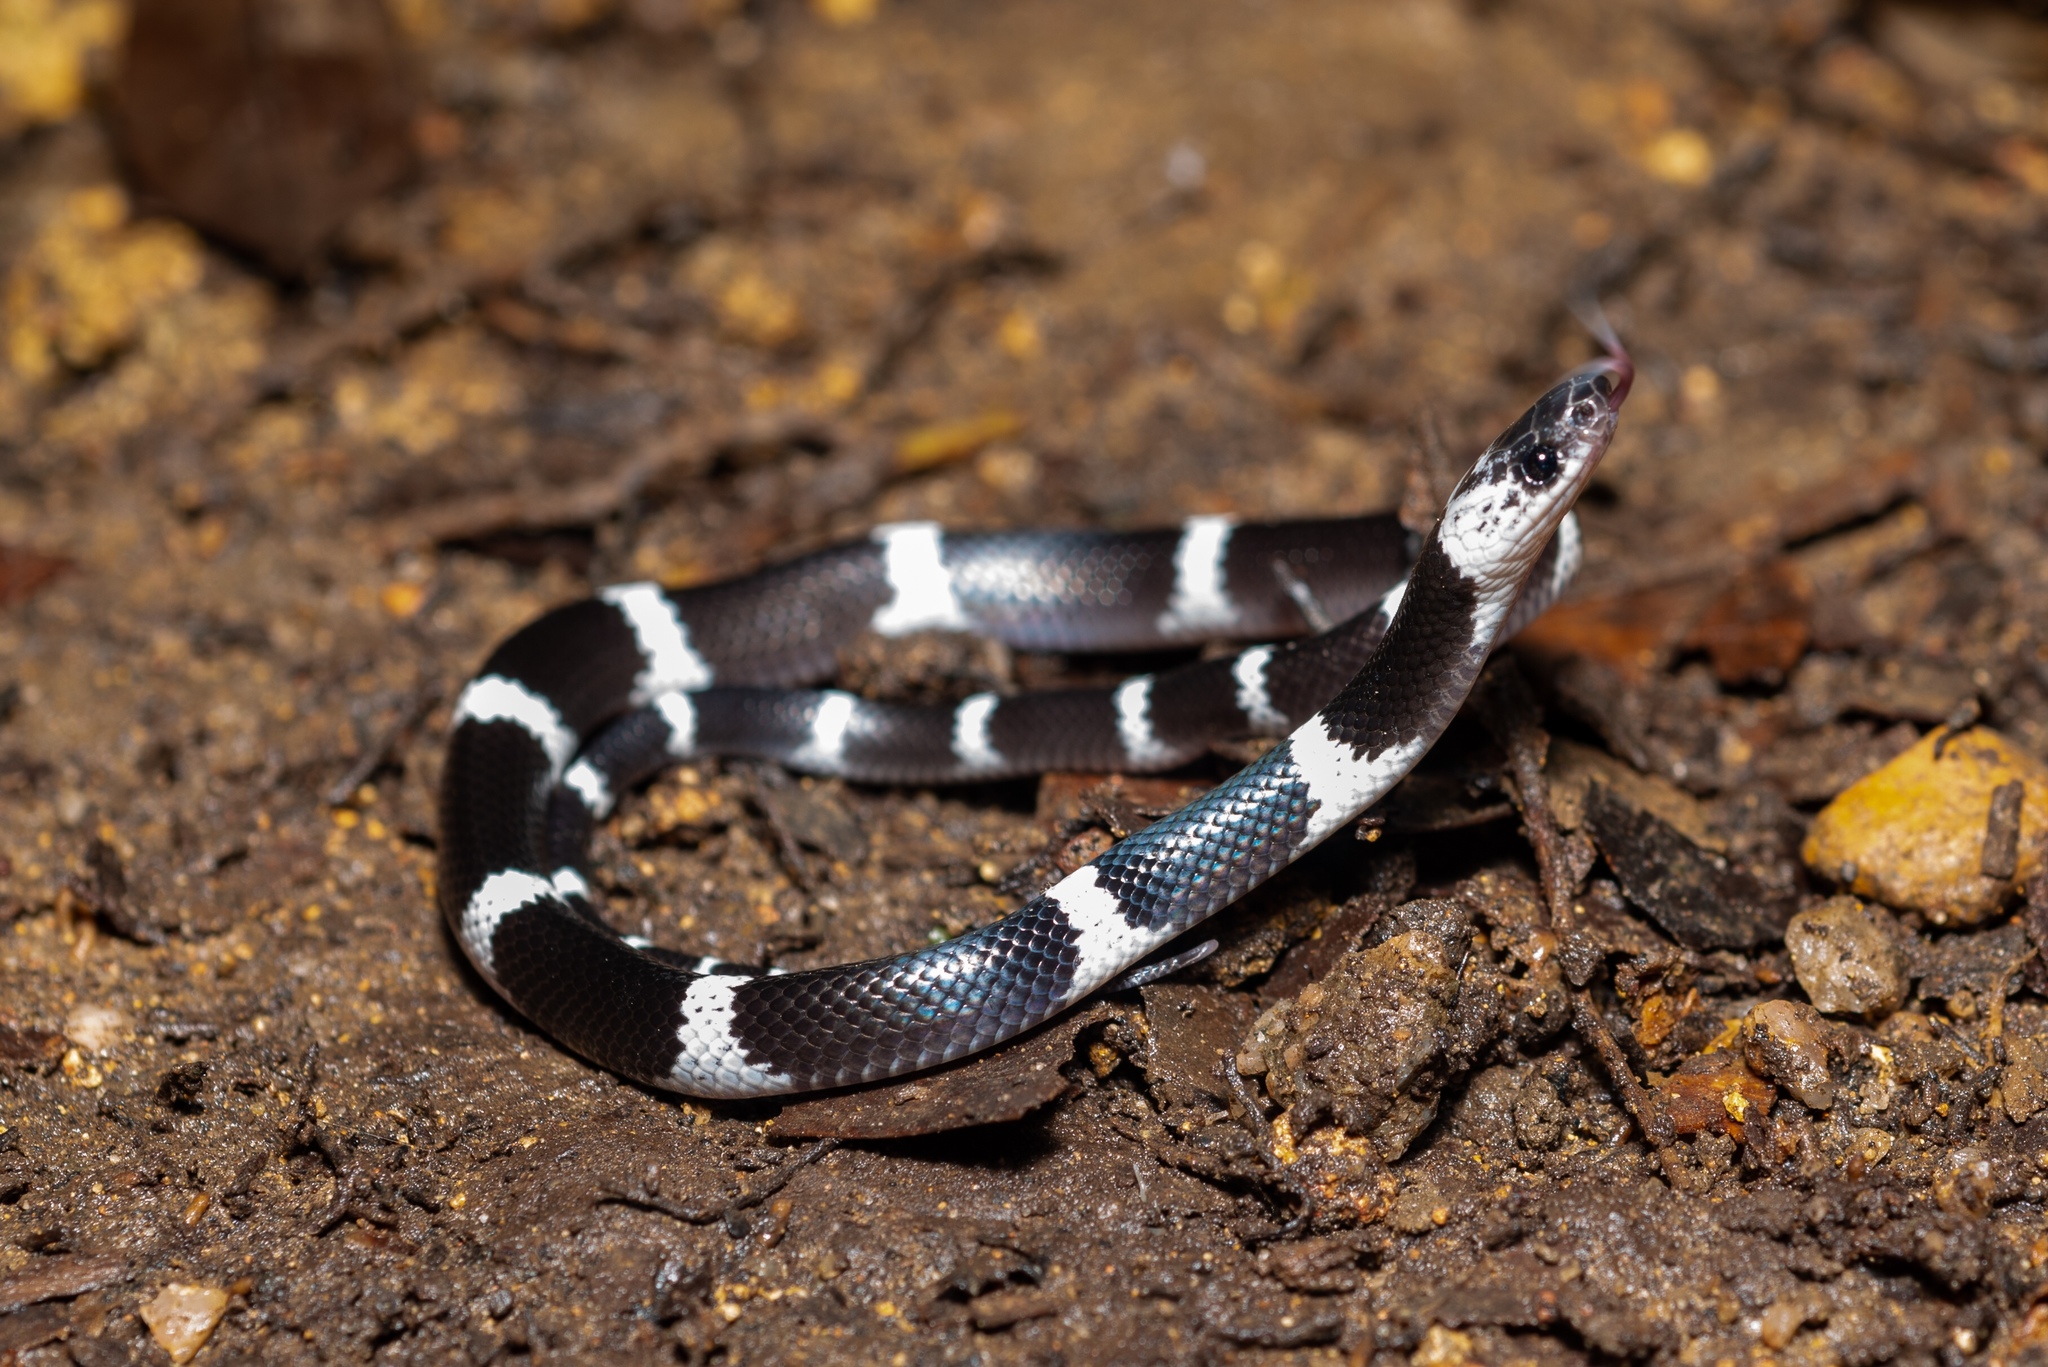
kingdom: Animalia
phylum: Chordata
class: Squamata
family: Colubridae
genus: Lycodon
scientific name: Lycodon subcinctus
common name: Malayan banded wolf snake
